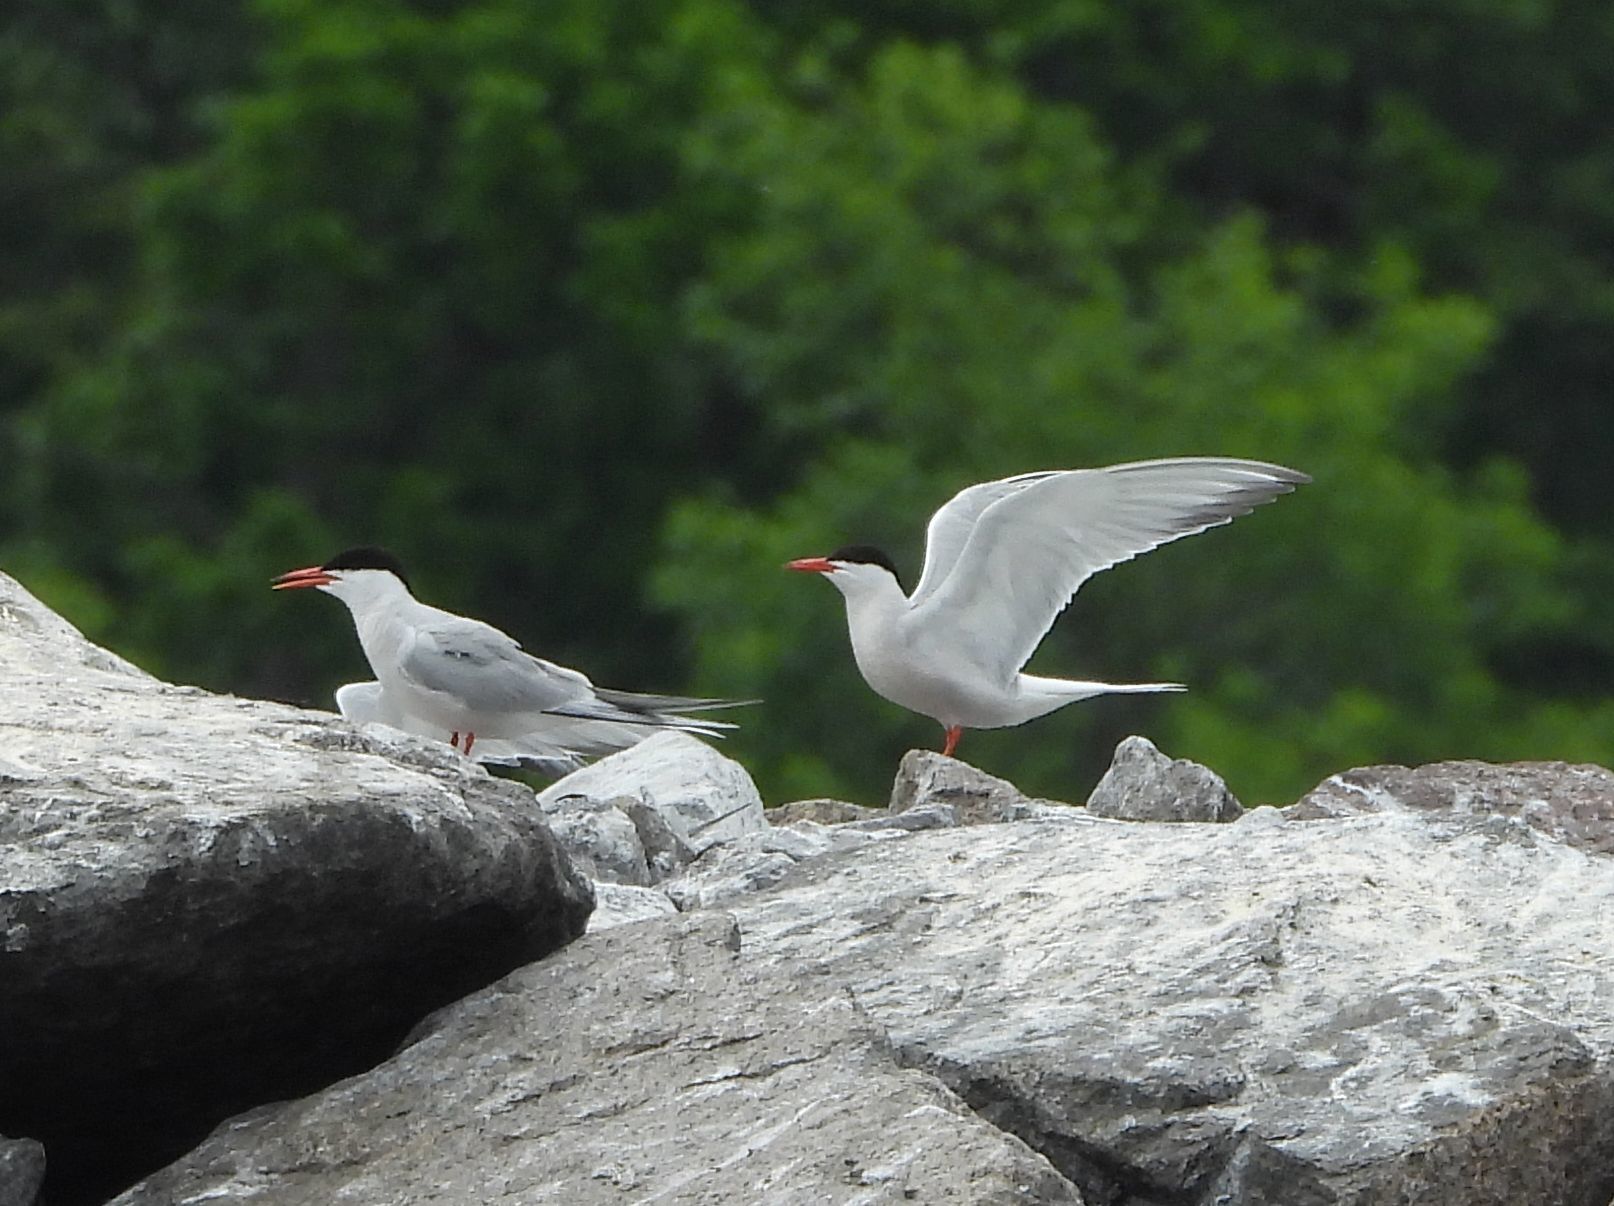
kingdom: Animalia
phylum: Chordata
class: Aves
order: Charadriiformes
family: Laridae
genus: Sterna
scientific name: Sterna hirundo
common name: Common tern
